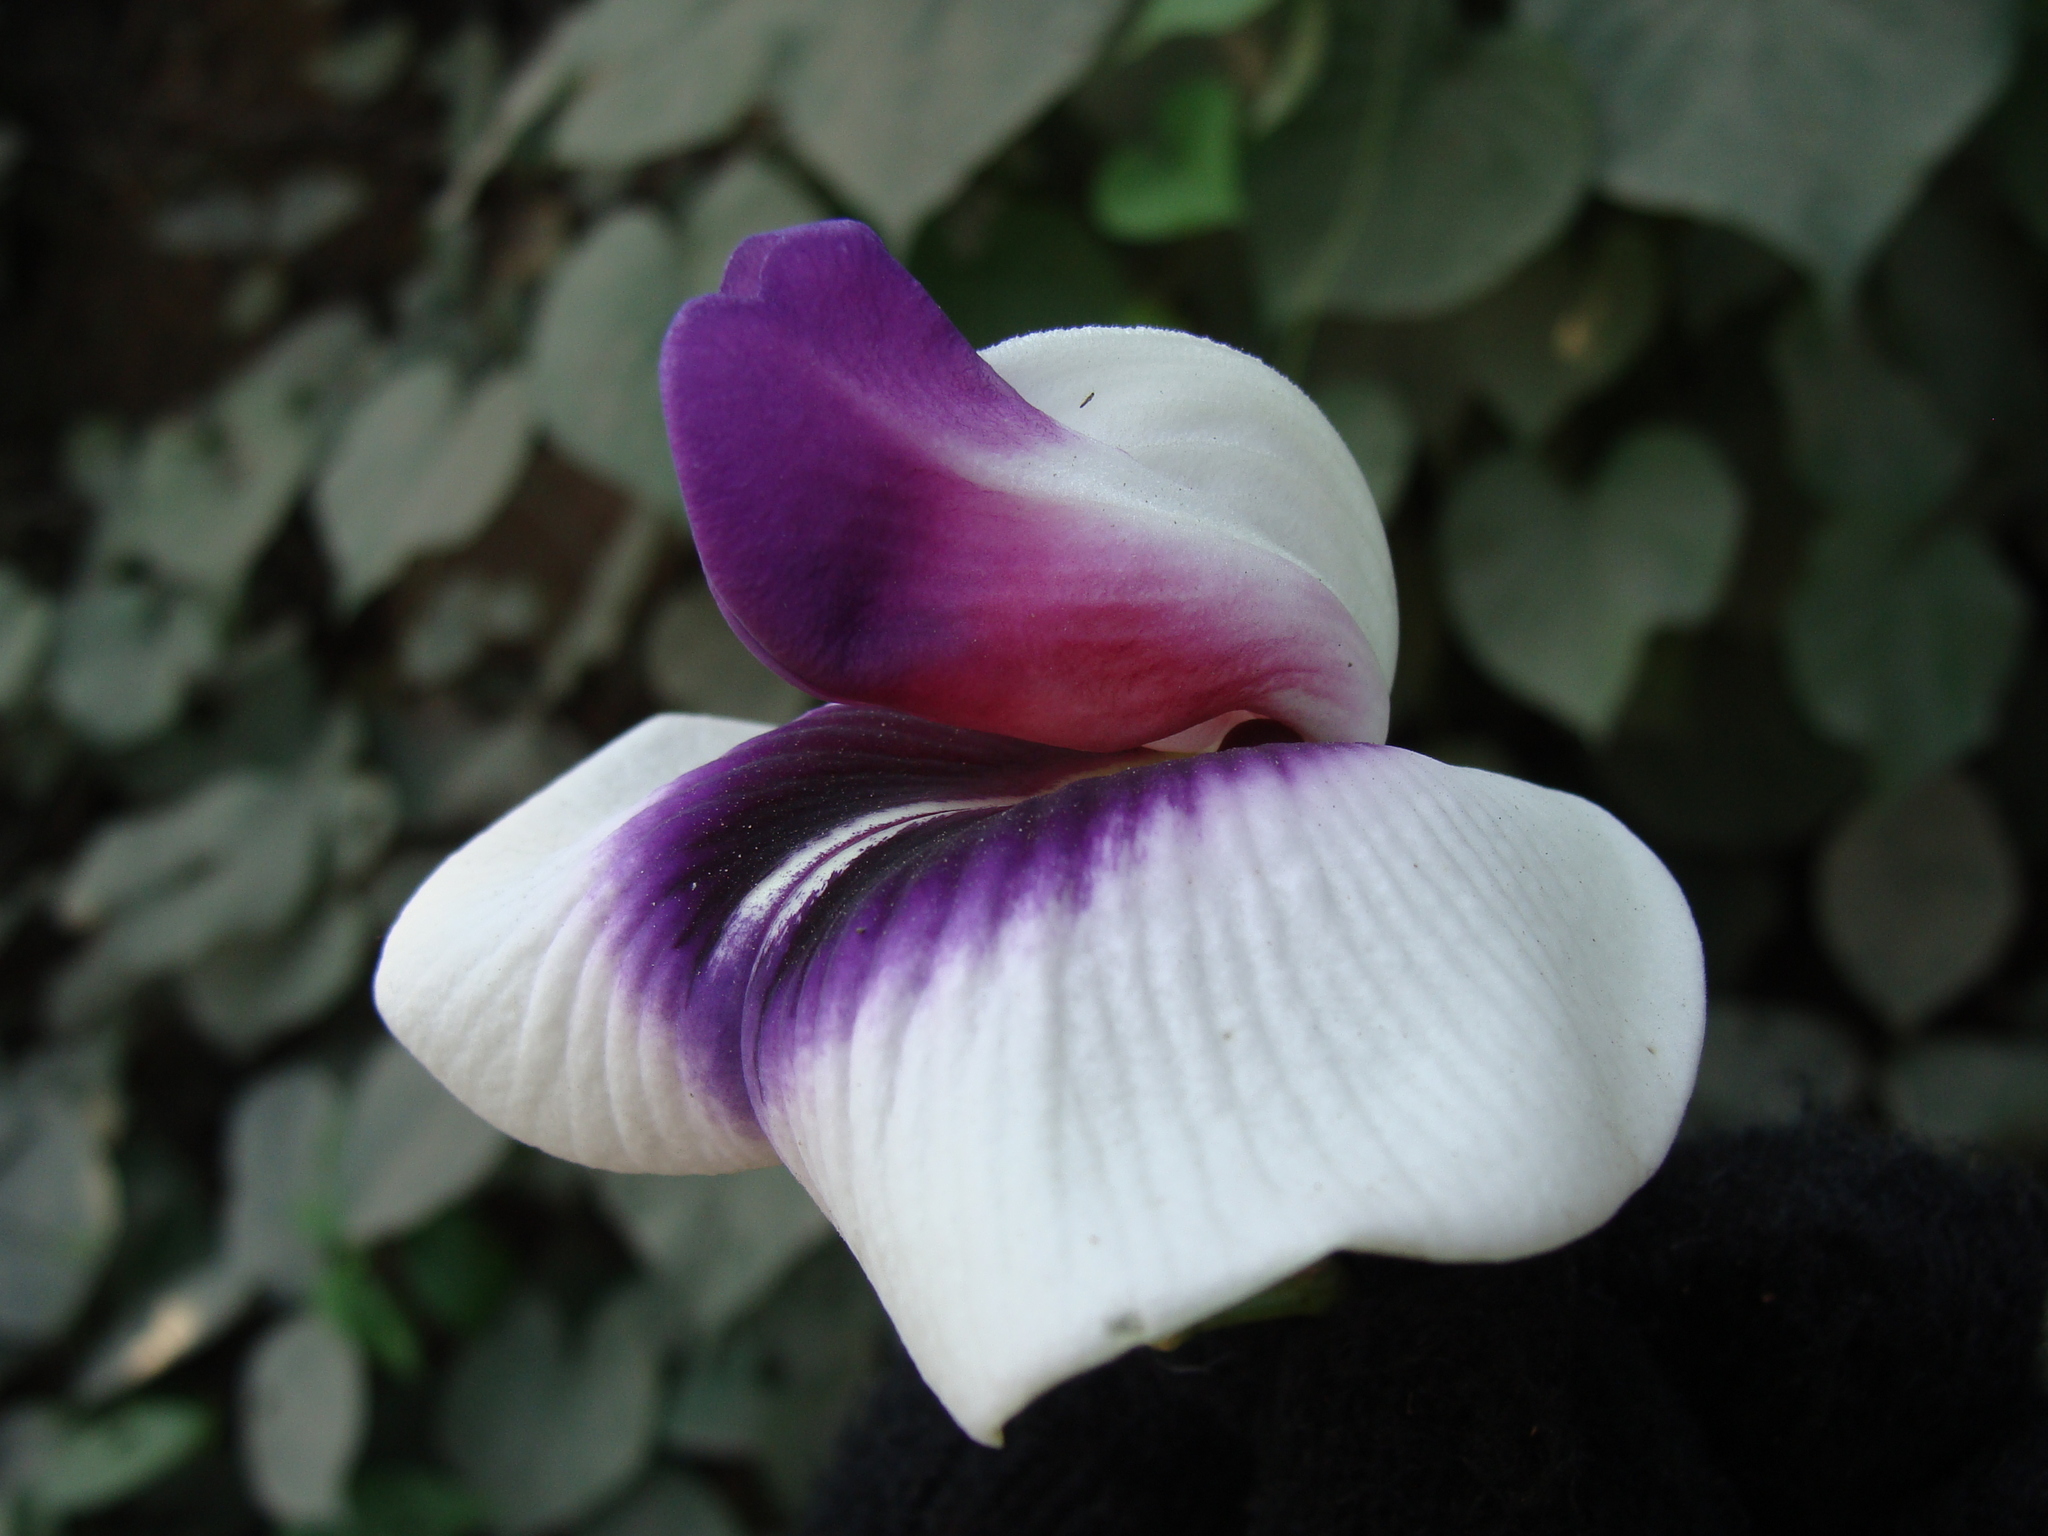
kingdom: Plantae
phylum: Tracheophyta
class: Magnoliopsida
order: Fabales
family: Fabaceae
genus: Centrosema
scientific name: Centrosema plumieri
